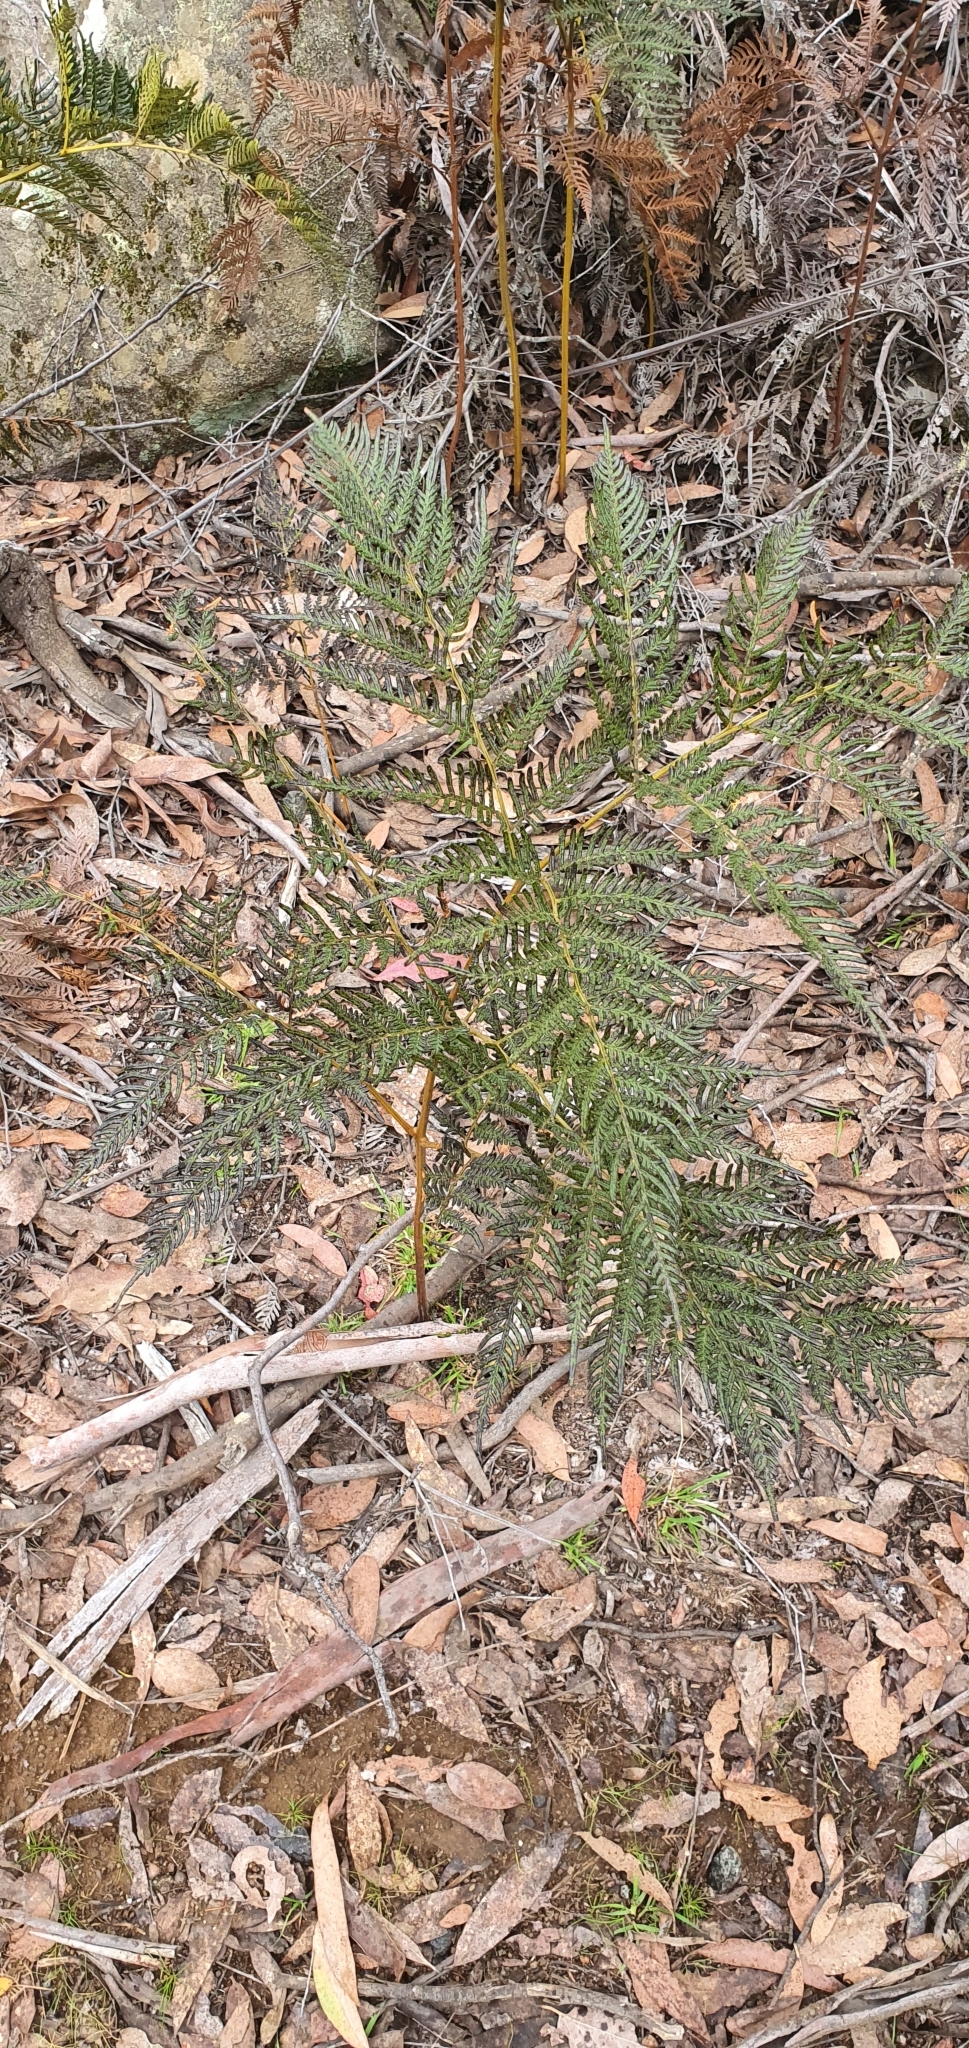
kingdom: Plantae
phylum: Tracheophyta
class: Polypodiopsida
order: Polypodiales
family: Dennstaedtiaceae
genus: Pteridium
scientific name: Pteridium esculentum
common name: Bracken fern
